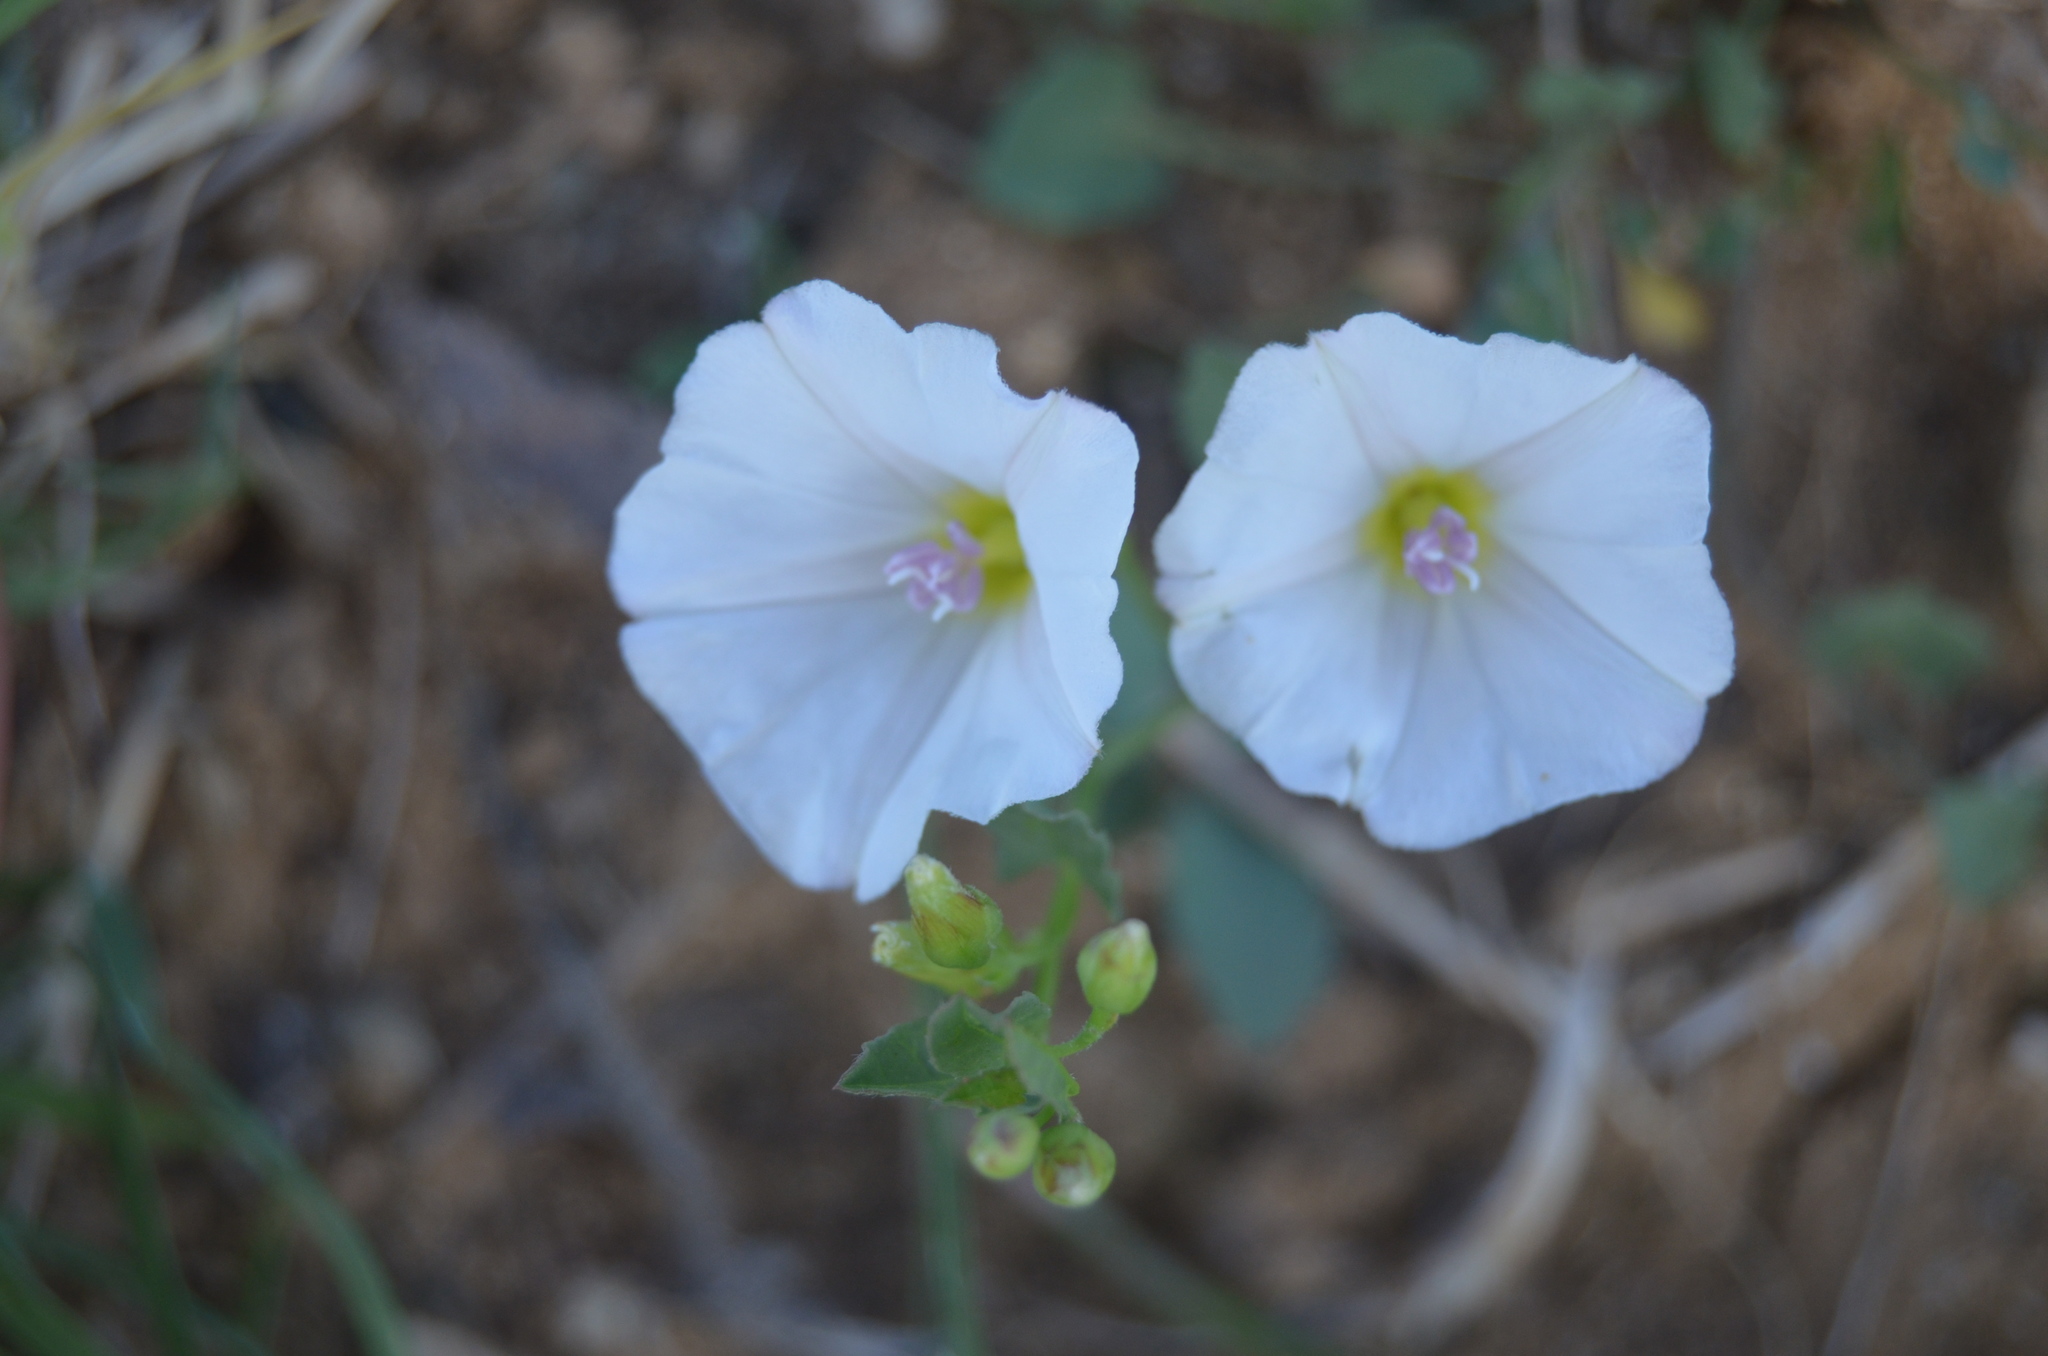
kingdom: Plantae
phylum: Tracheophyta
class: Magnoliopsida
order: Solanales
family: Convolvulaceae
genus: Convolvulus
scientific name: Convolvulus arvensis
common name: Field bindweed
